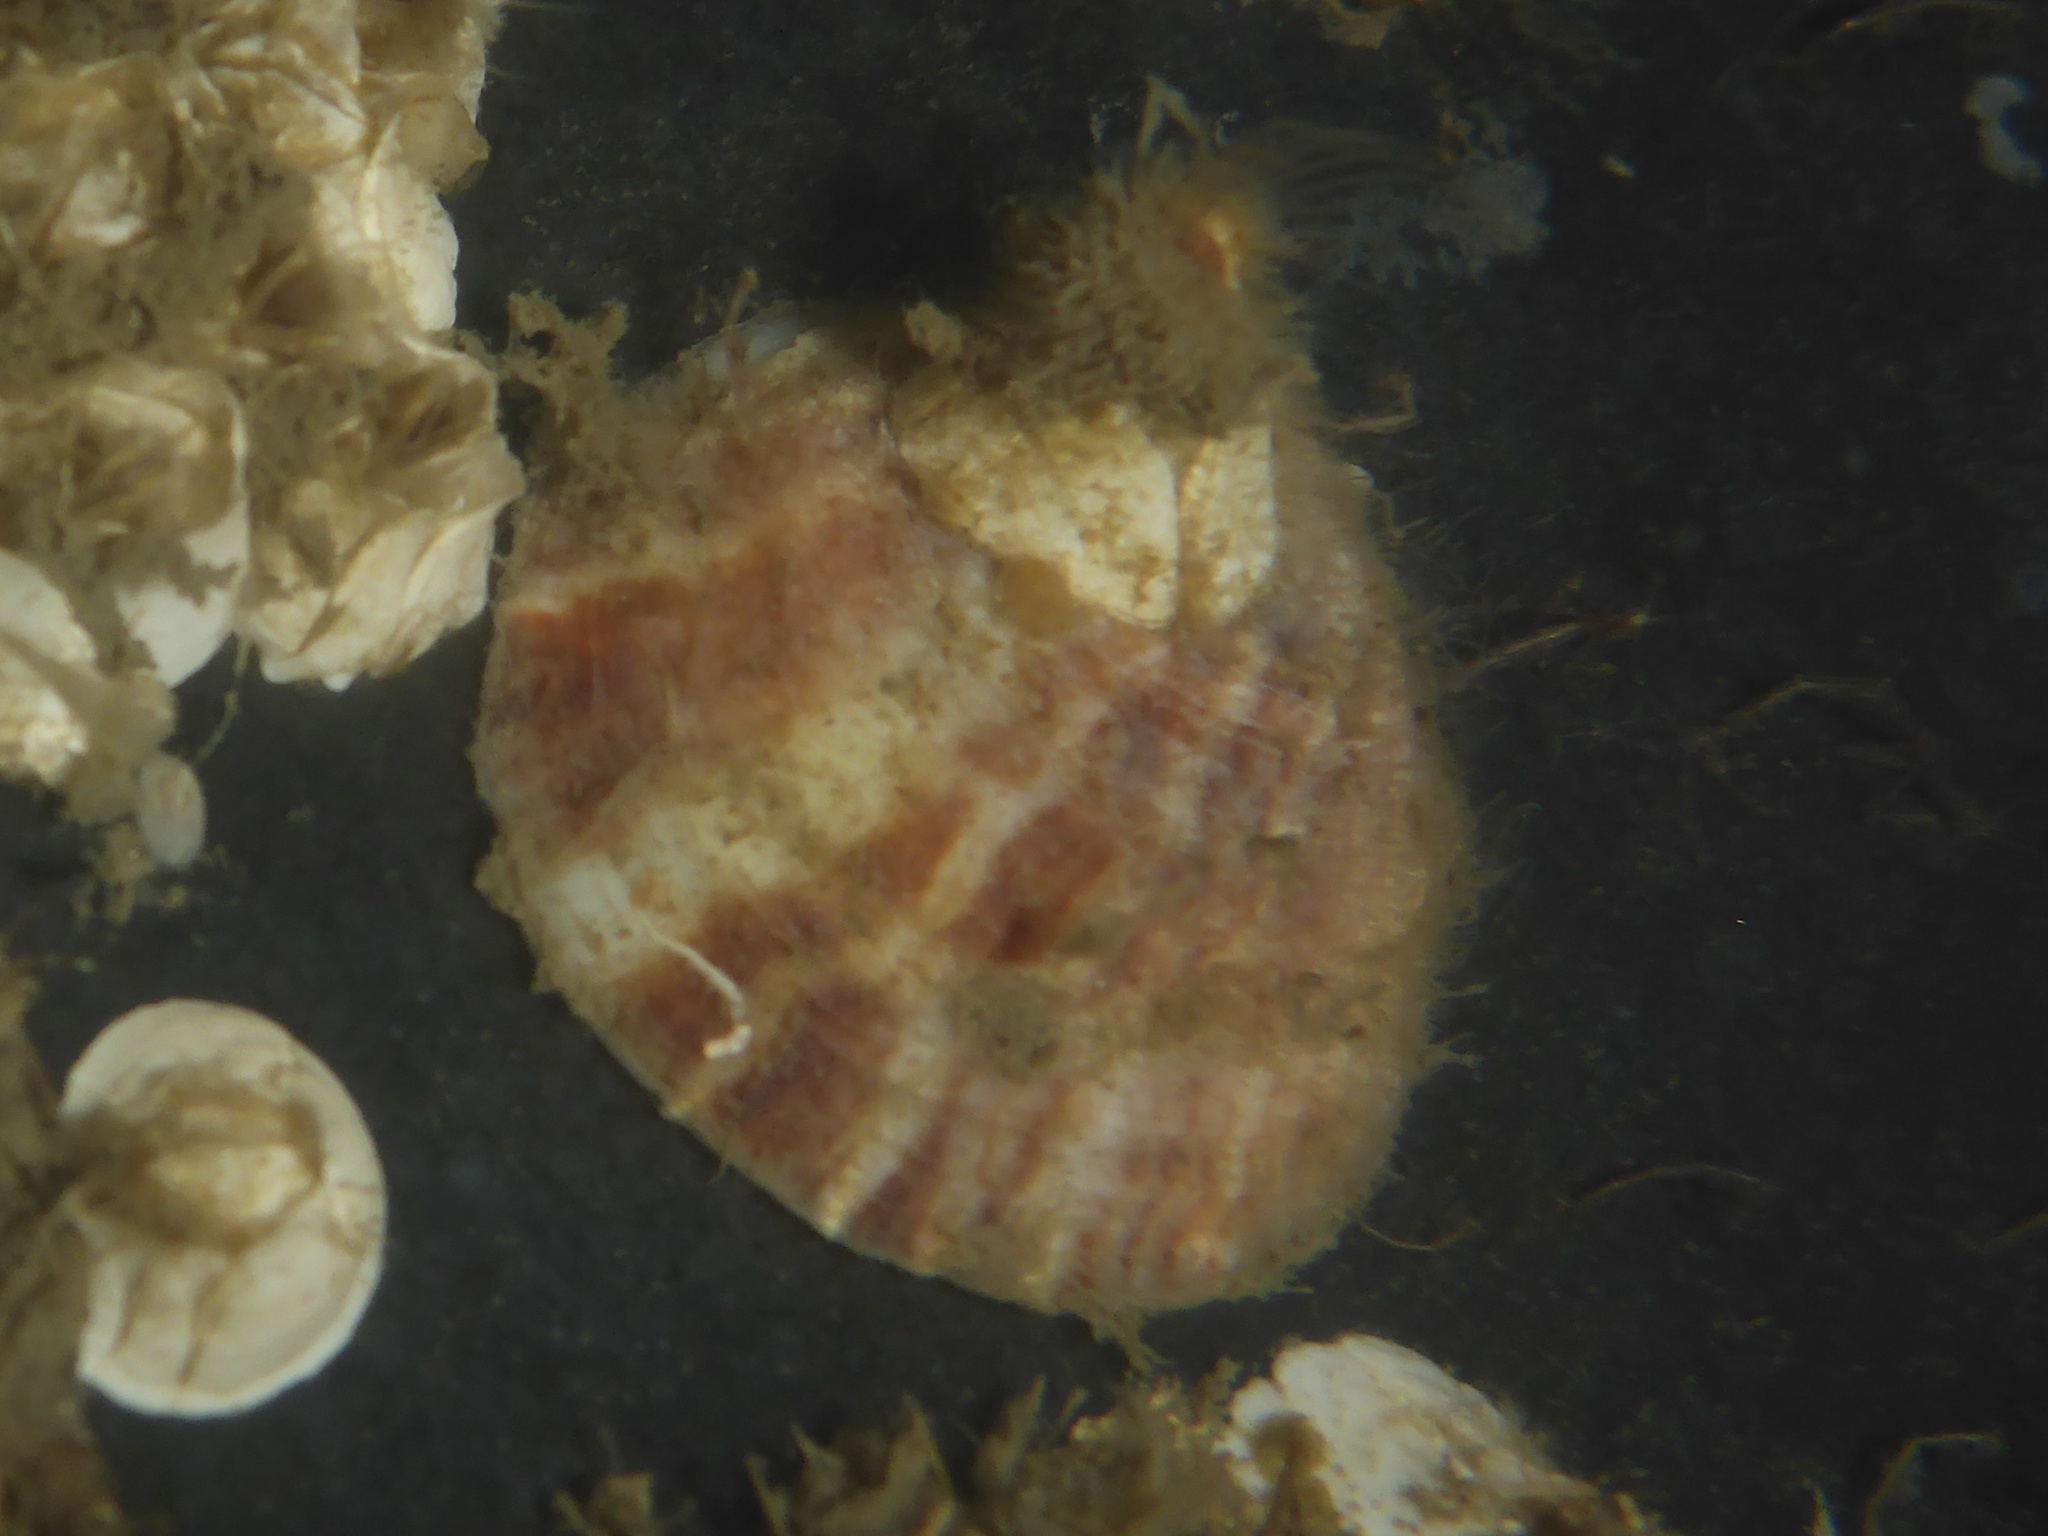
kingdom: Animalia
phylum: Mollusca
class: Gastropoda
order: Littorinimorpha
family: Calyptraeidae
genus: Crepipatella
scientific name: Crepipatella lingulata
